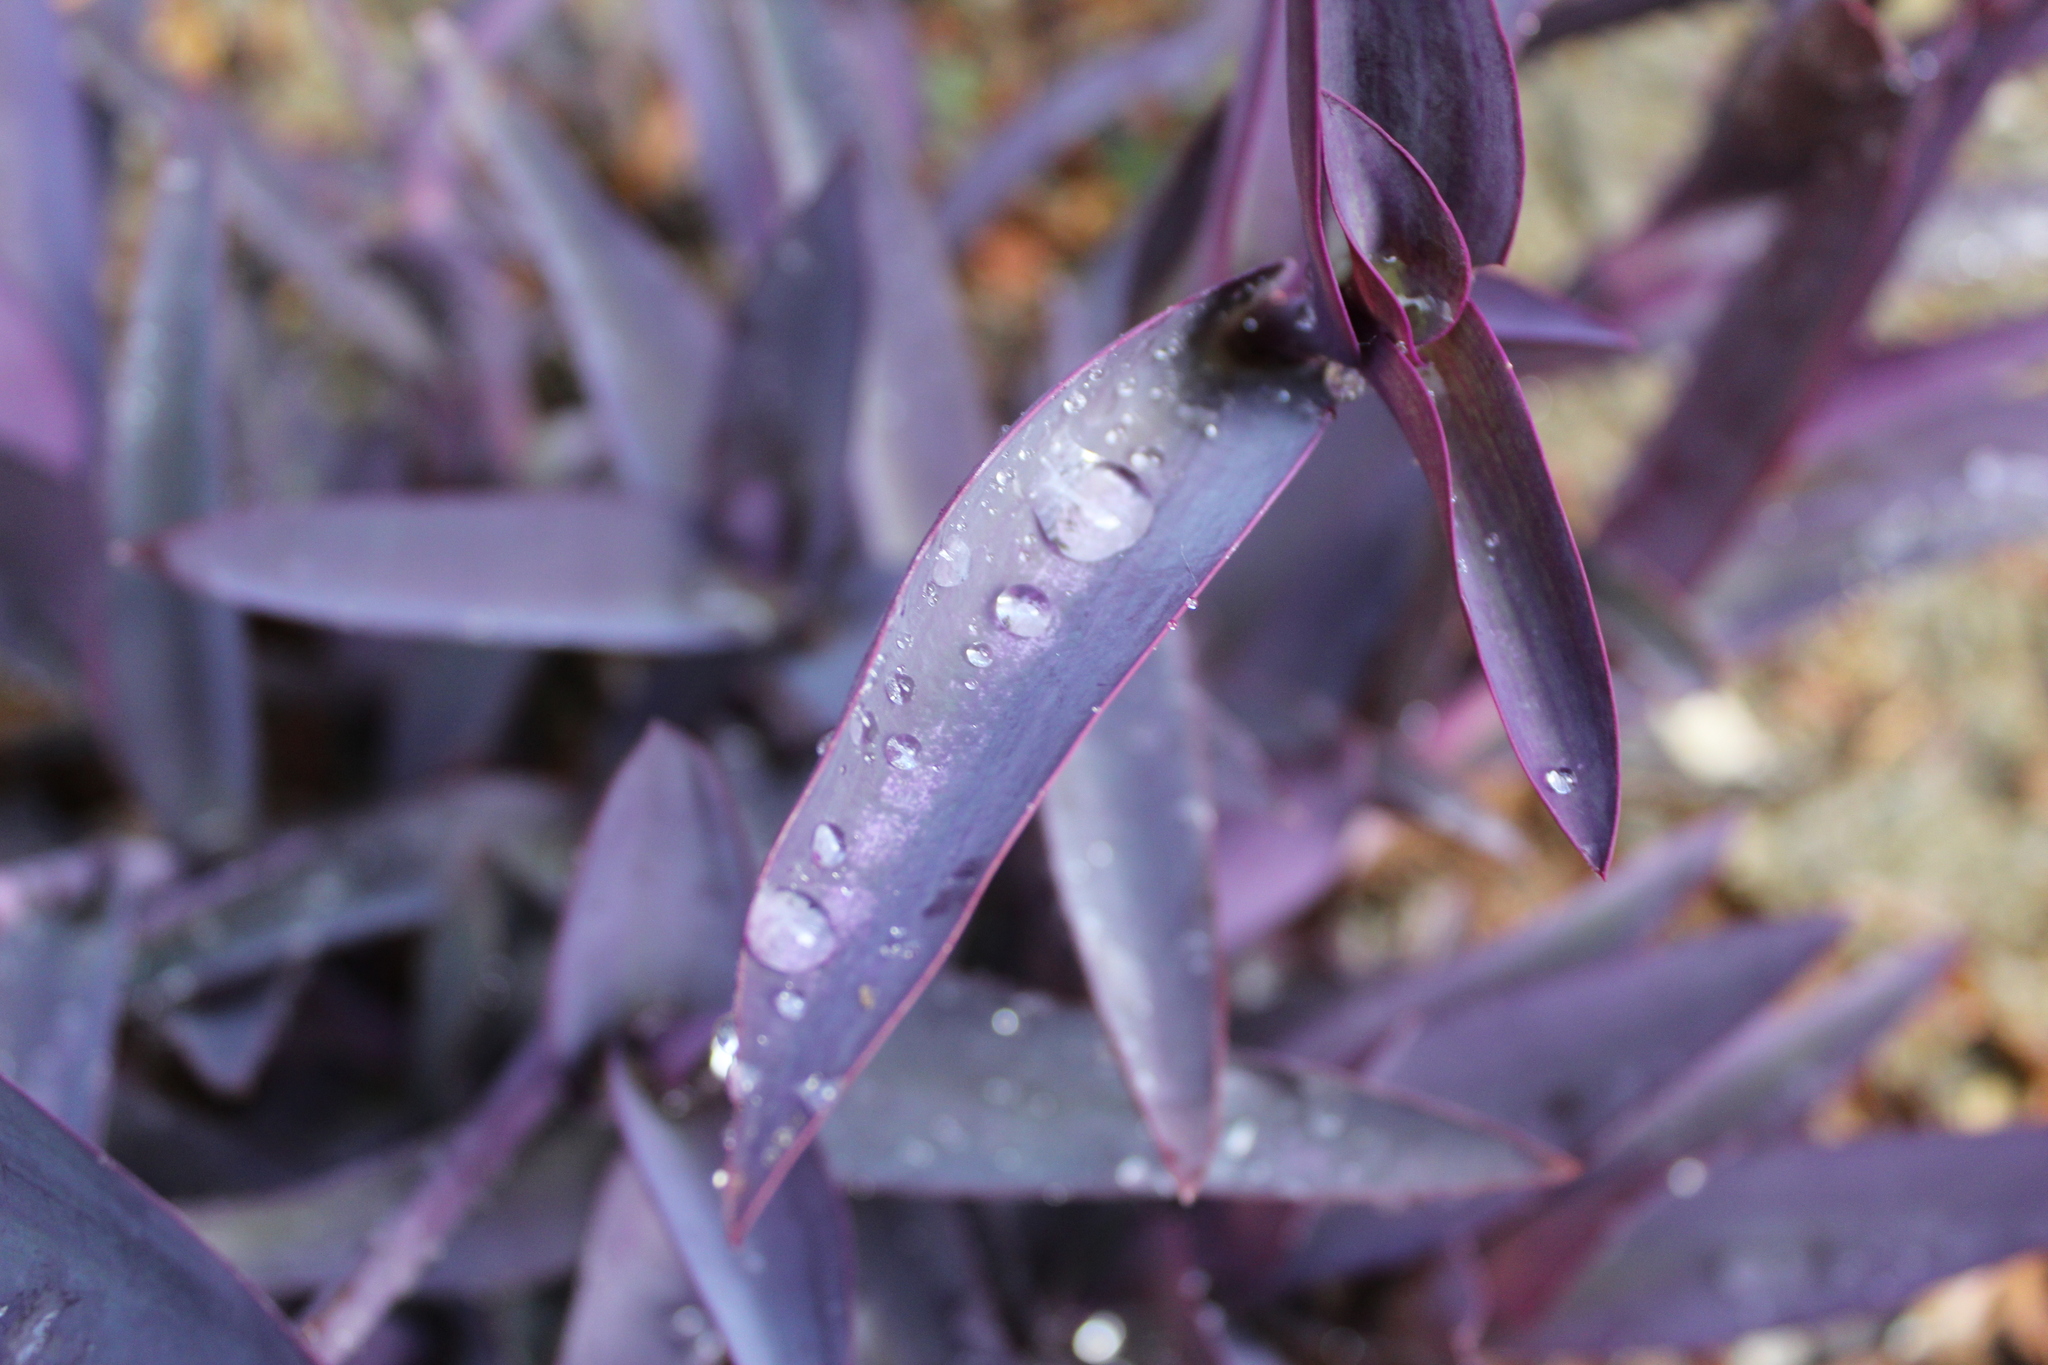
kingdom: Plantae
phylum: Tracheophyta
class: Liliopsida
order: Commelinales
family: Commelinaceae
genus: Tradescantia
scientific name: Tradescantia pallida
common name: Purpleheart
